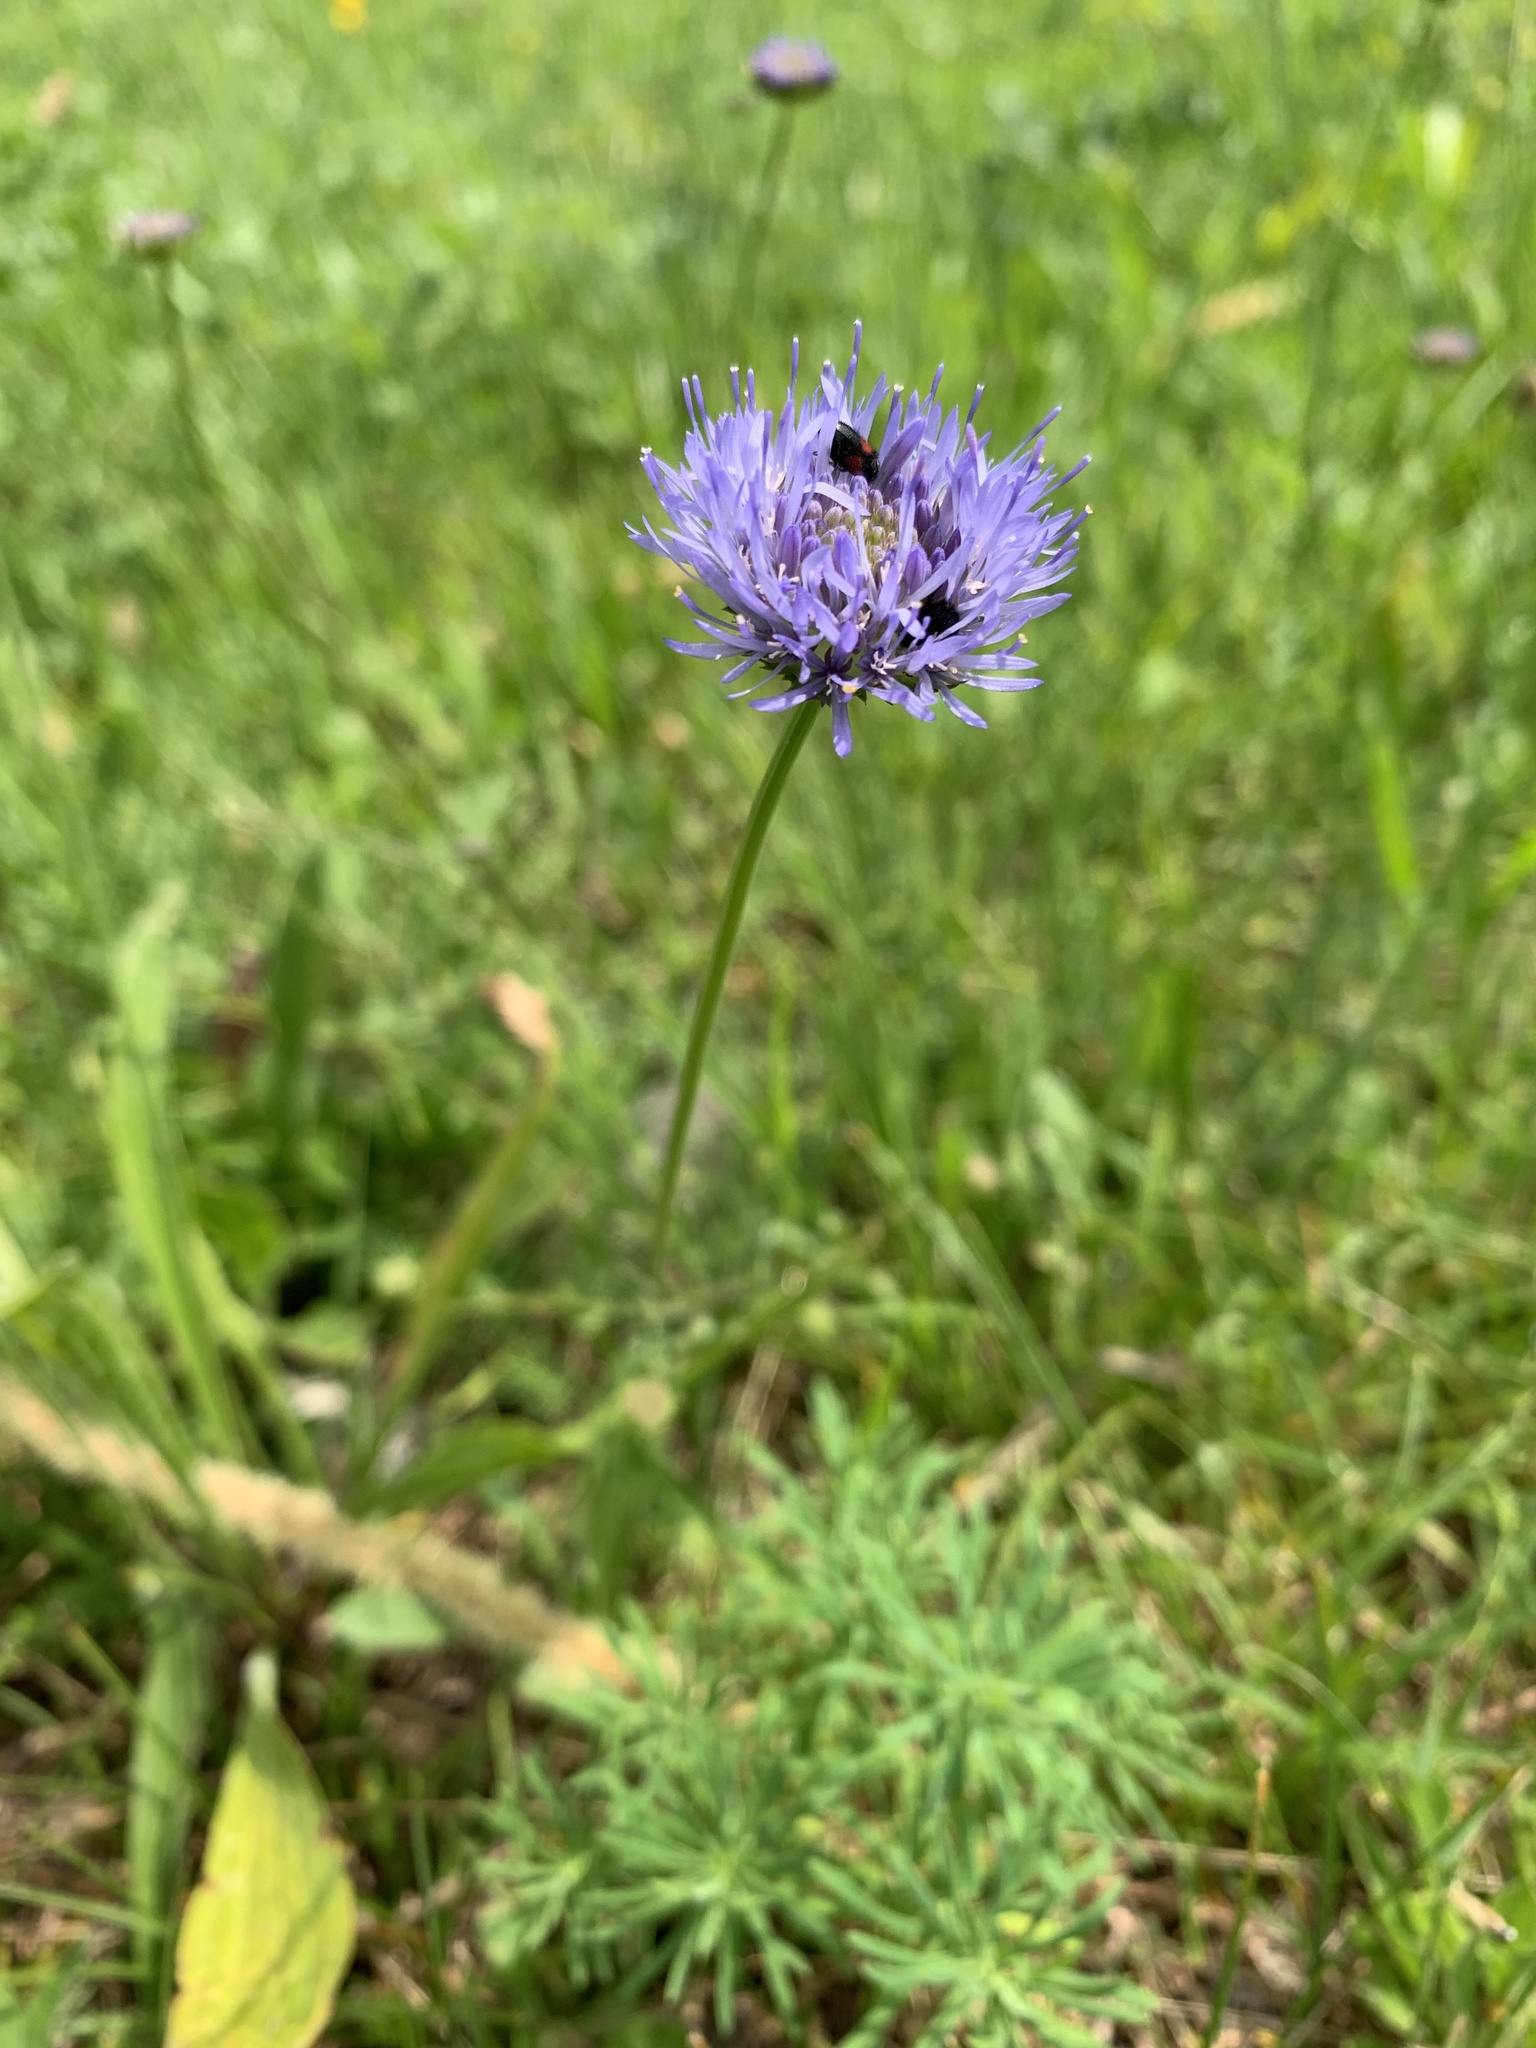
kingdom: Plantae
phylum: Tracheophyta
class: Magnoliopsida
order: Asterales
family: Campanulaceae
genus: Jasione
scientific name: Jasione montana
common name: Sheep's-bit
